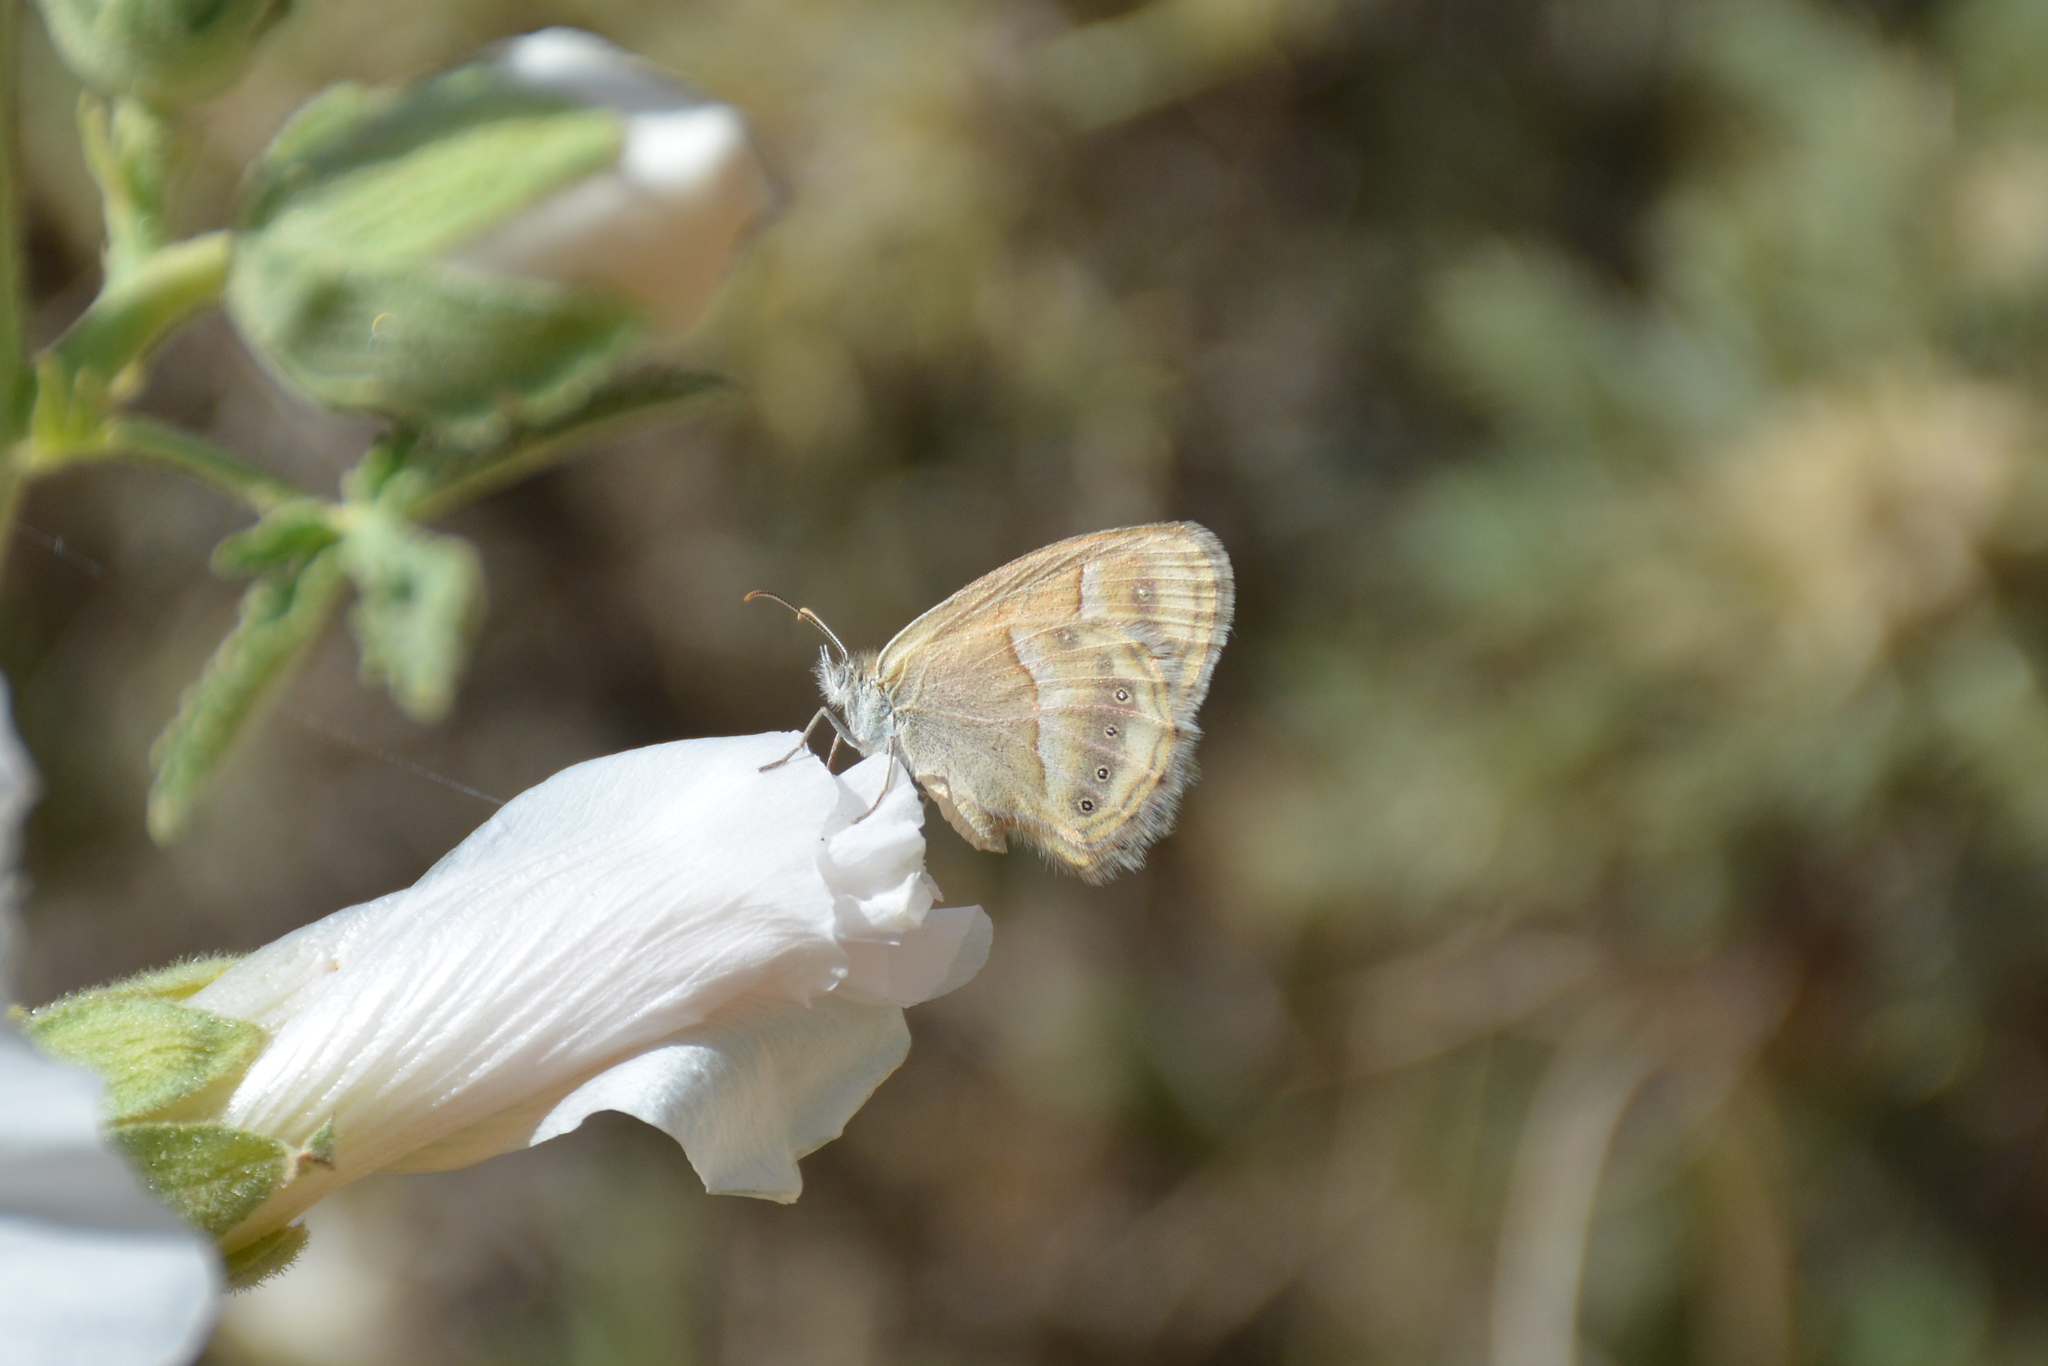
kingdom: Animalia
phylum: Arthropoda
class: Insecta
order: Lepidoptera
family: Nymphalidae
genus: Coenonympha
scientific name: Coenonympha saadi
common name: Small heath
